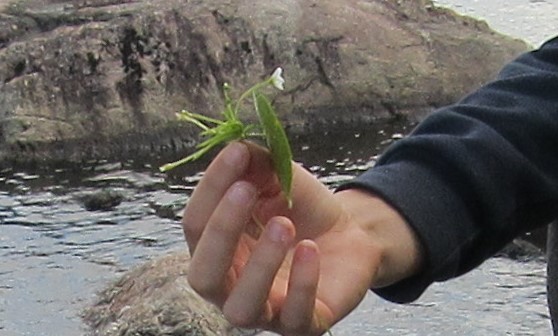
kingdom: Plantae
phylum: Tracheophyta
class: Magnoliopsida
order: Asterales
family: Menyanthaceae
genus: Nymphoides
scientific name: Nymphoides cordata
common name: Eight-angled floatingheart
